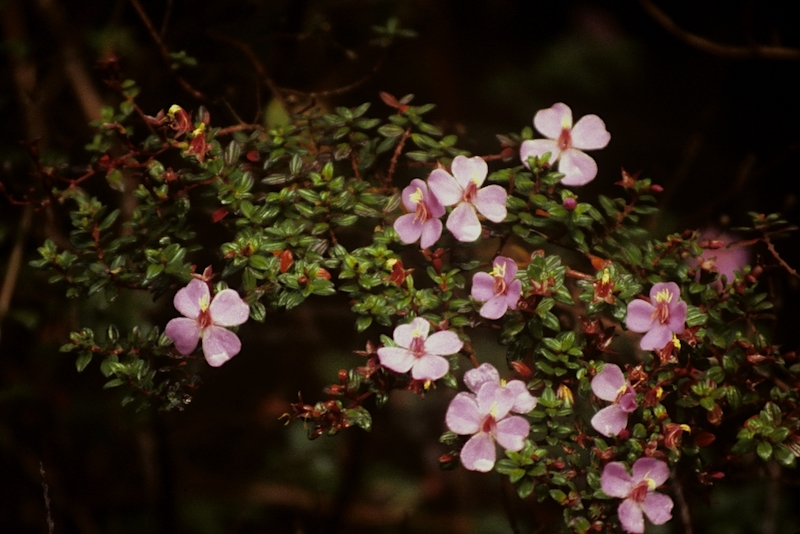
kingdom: Plantae
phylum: Tracheophyta
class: Magnoliopsida
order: Myrtales
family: Melastomataceae
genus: Monochaetum
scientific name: Monochaetum vulcanicum
